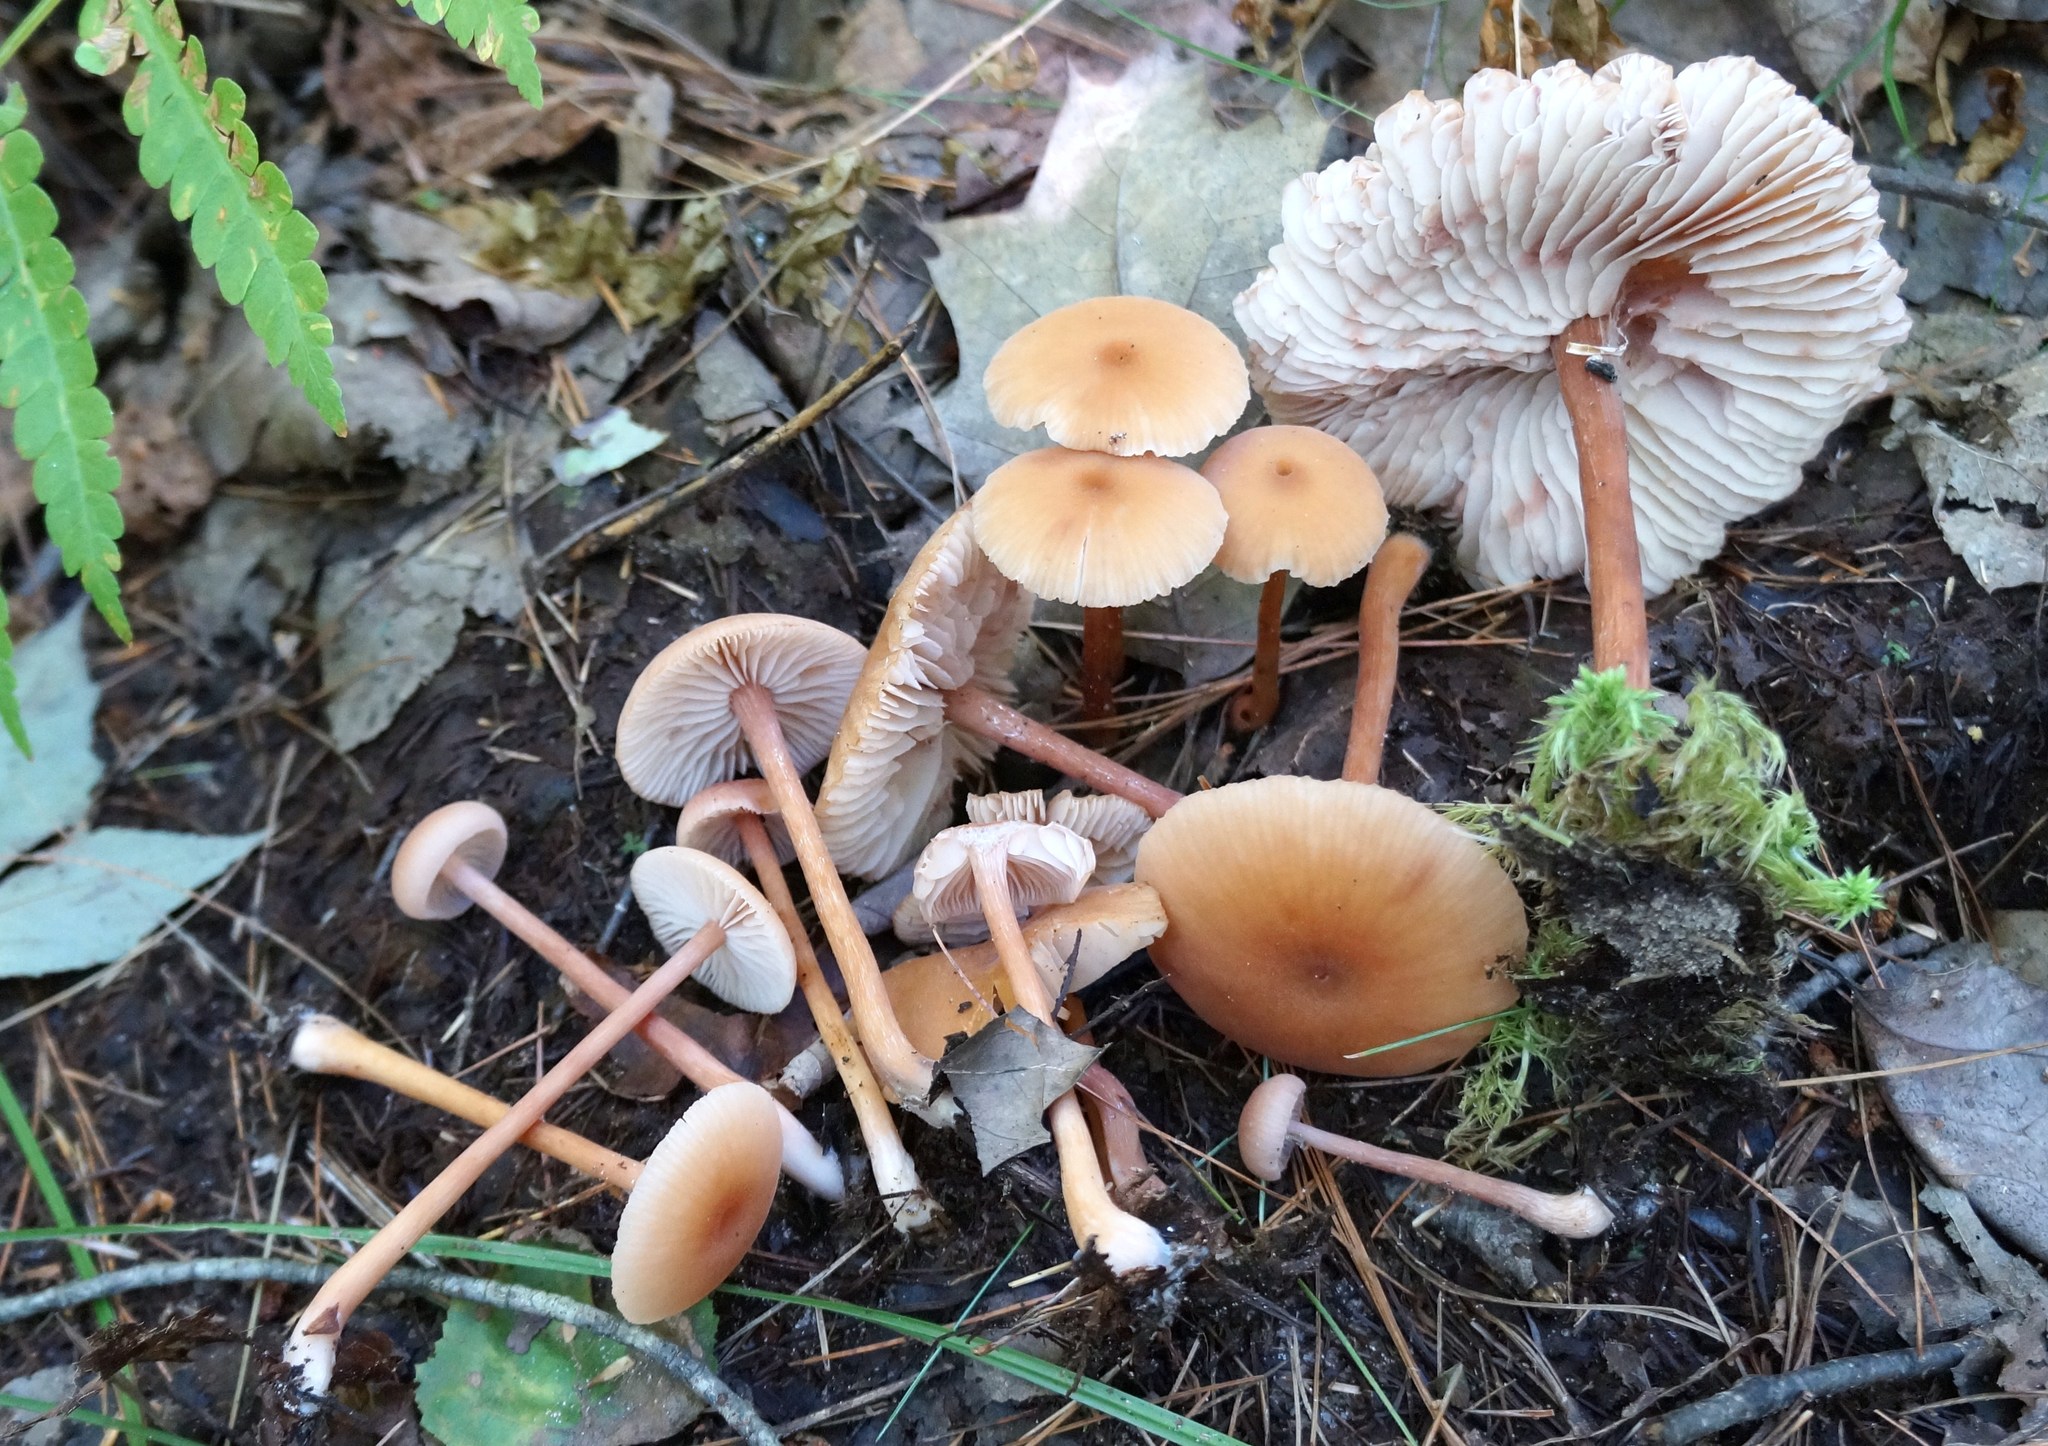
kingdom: Fungi
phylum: Basidiomycota
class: Agaricomycetes
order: Agaricales
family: Hydnangiaceae
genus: Laccaria
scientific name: Laccaria laccata
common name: Deceiver
